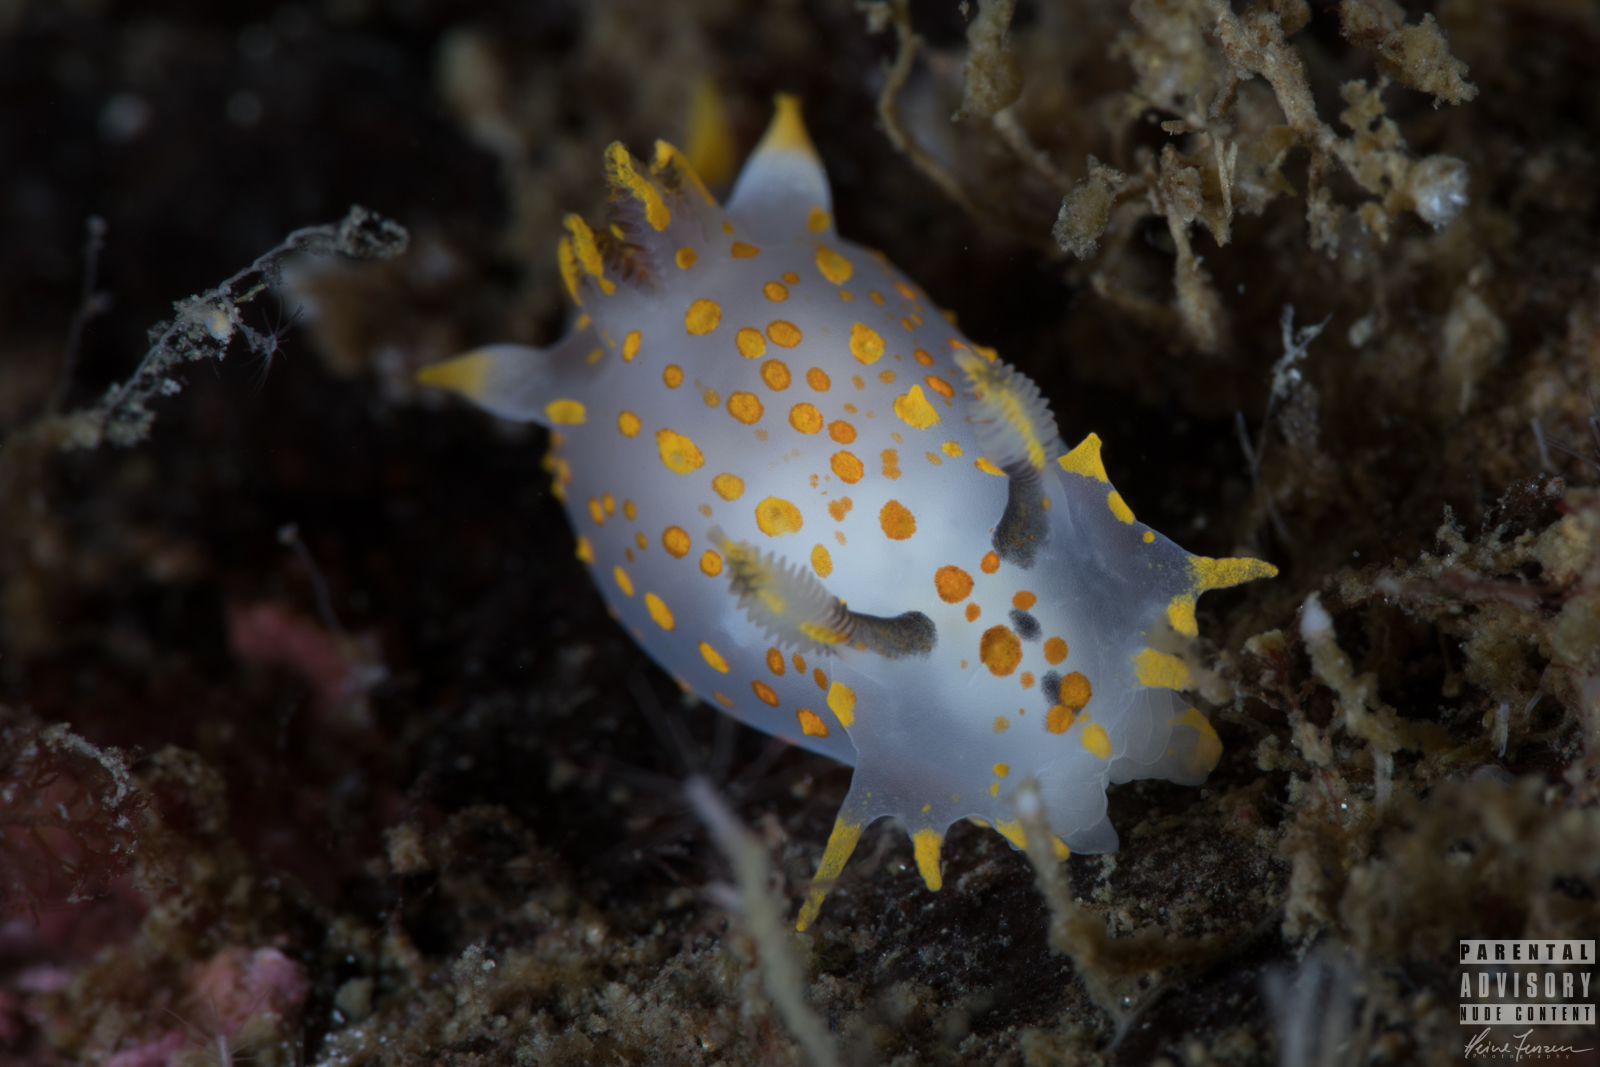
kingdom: Animalia
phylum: Mollusca
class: Gastropoda
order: Nudibranchia
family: Polyceridae
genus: Polycera
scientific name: Polycera quadrilineata
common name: Four-striped polycera
